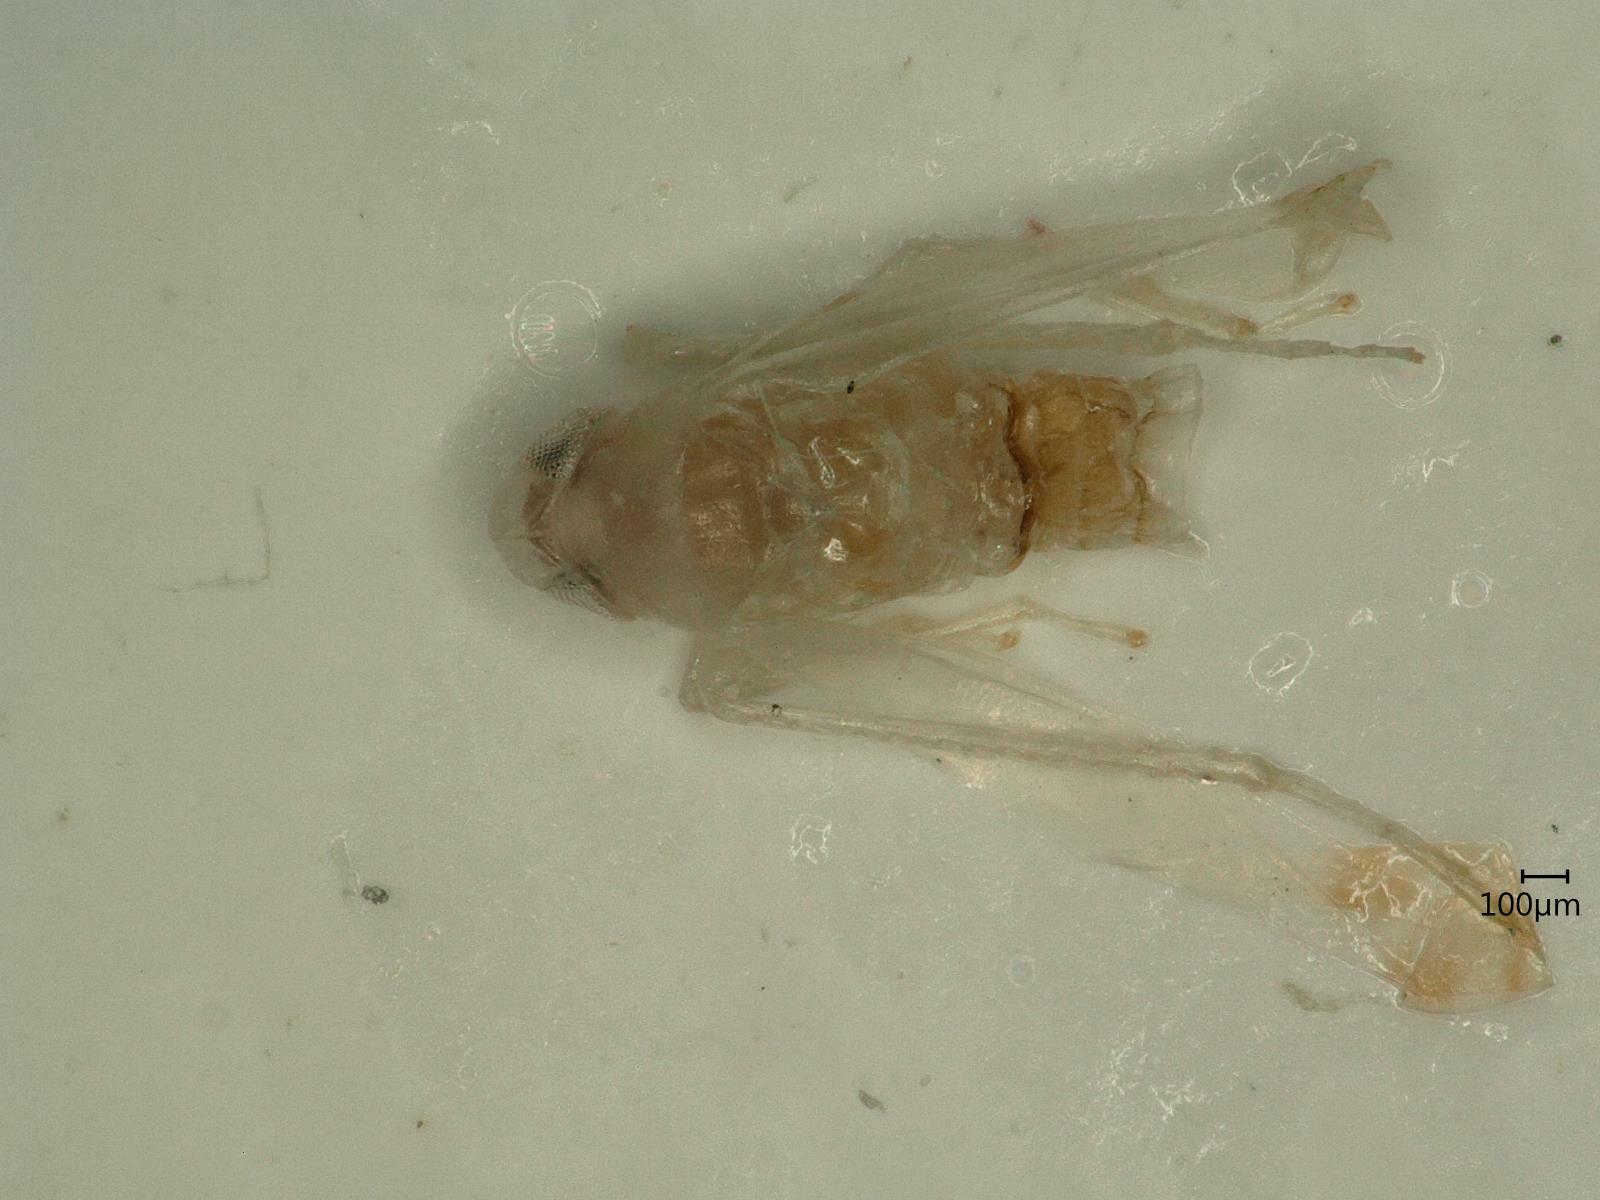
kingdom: Animalia
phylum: Arthropoda
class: Insecta
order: Hemiptera
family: Cicadellidae
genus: Ribautiana
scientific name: Ribautiana tenerrima
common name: Bramble leafhopper
